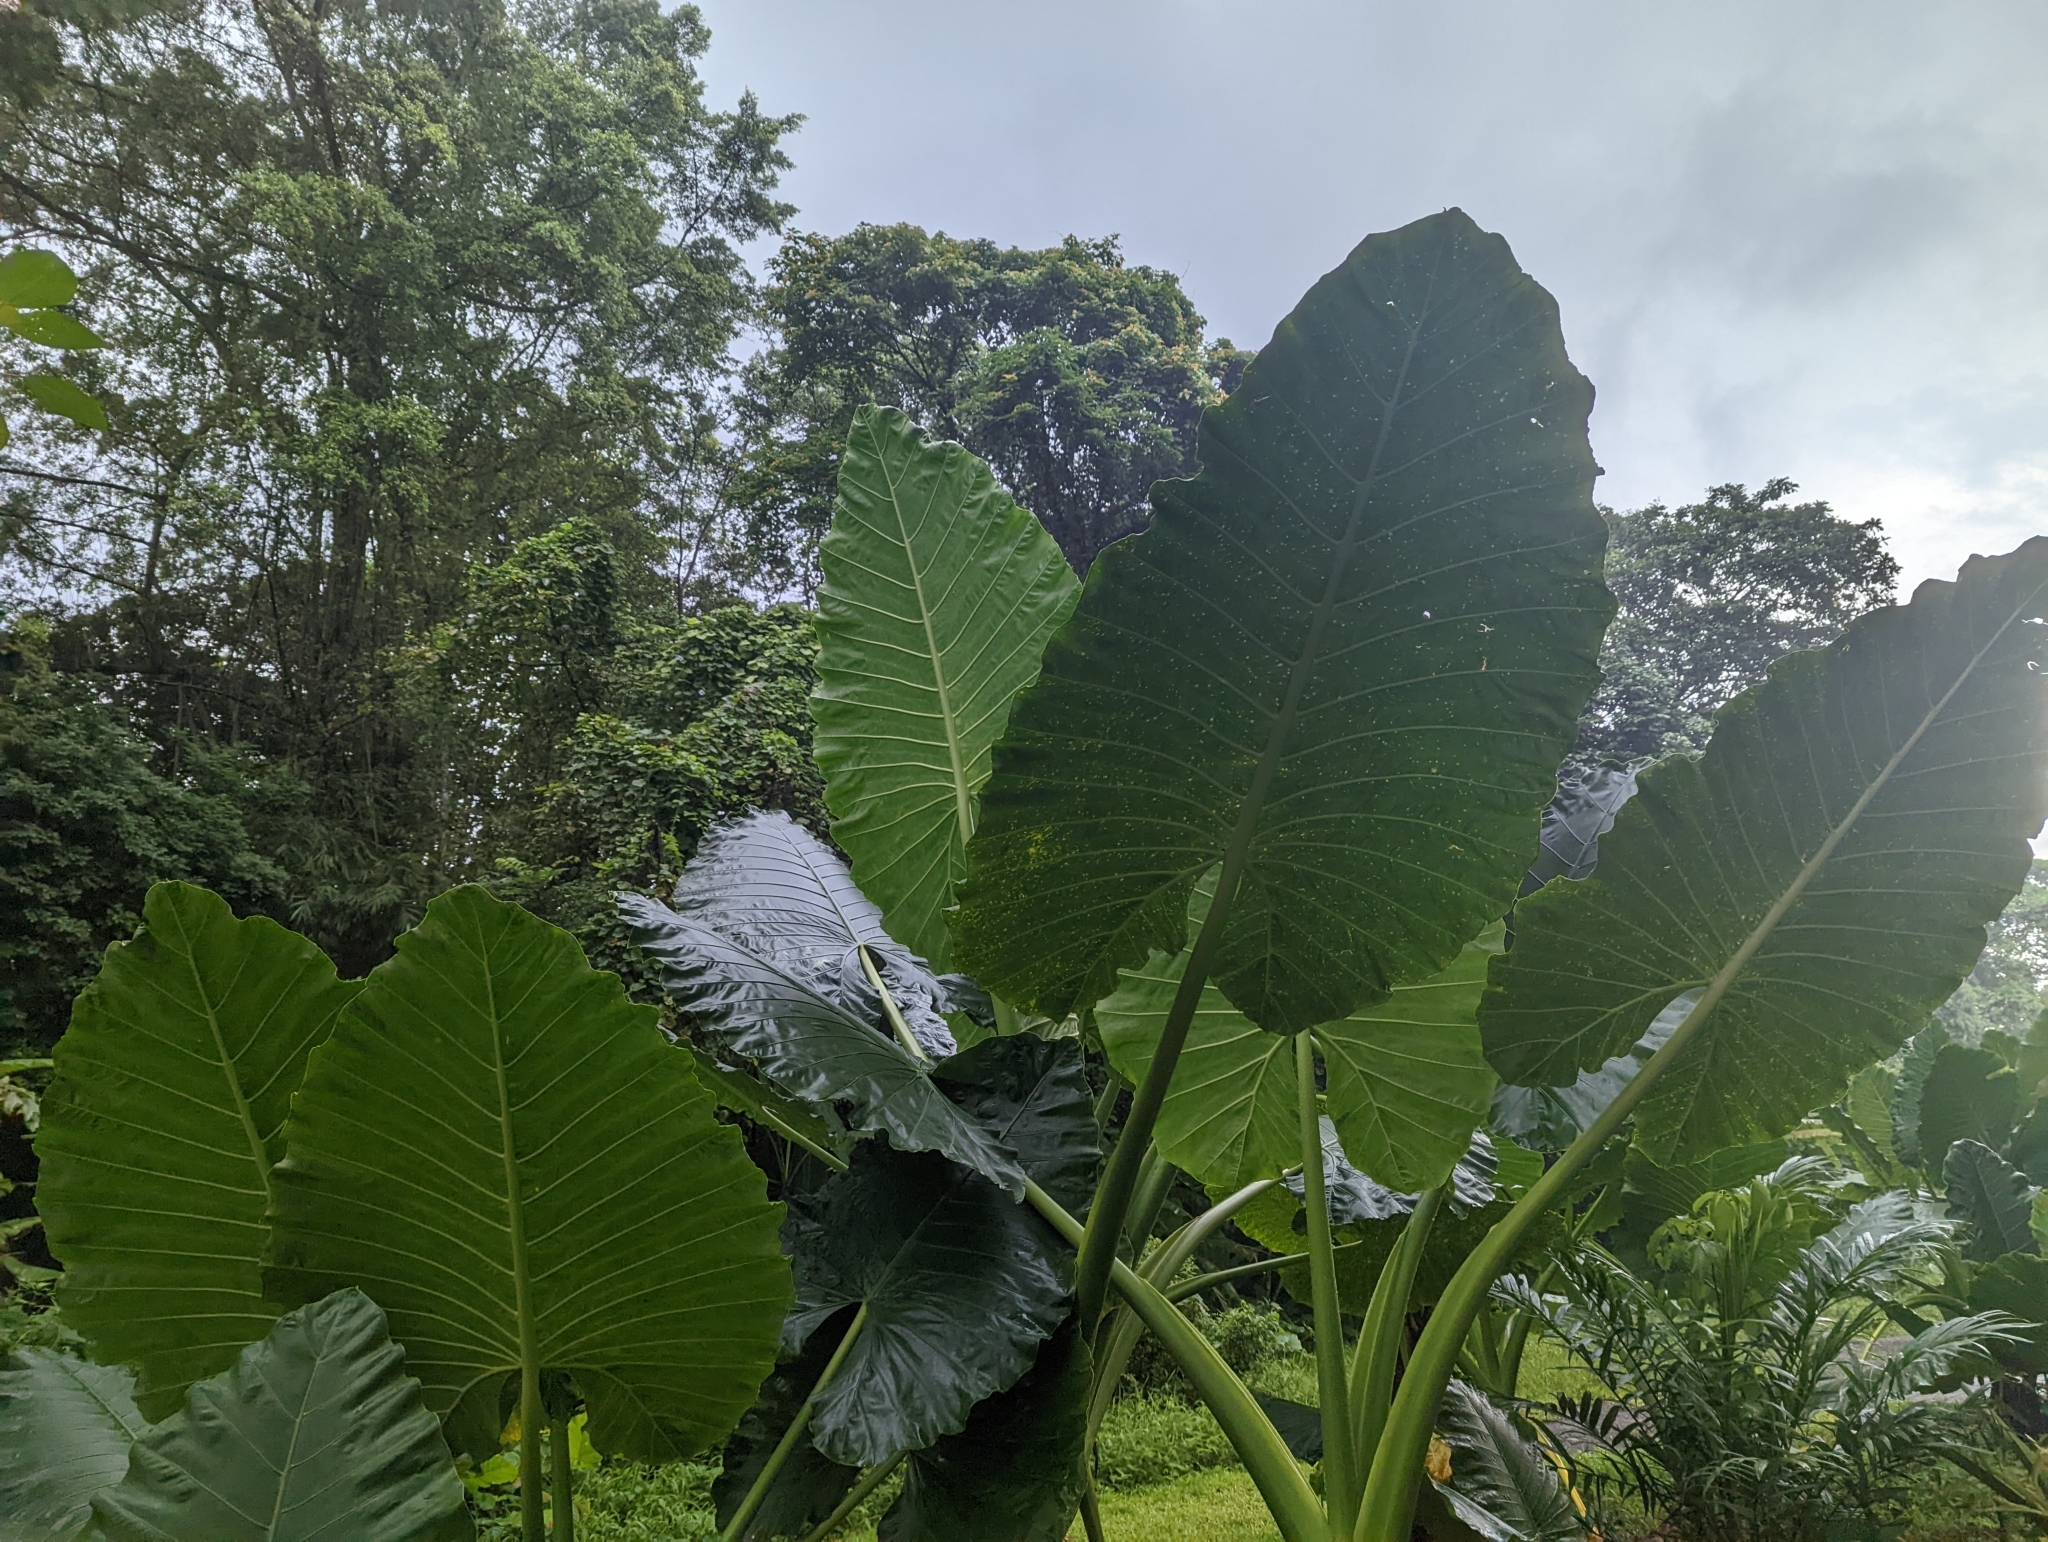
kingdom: Plantae
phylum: Tracheophyta
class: Liliopsida
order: Alismatales
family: Araceae
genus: Alocasia
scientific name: Alocasia macrorrhizos
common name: Giant taro
